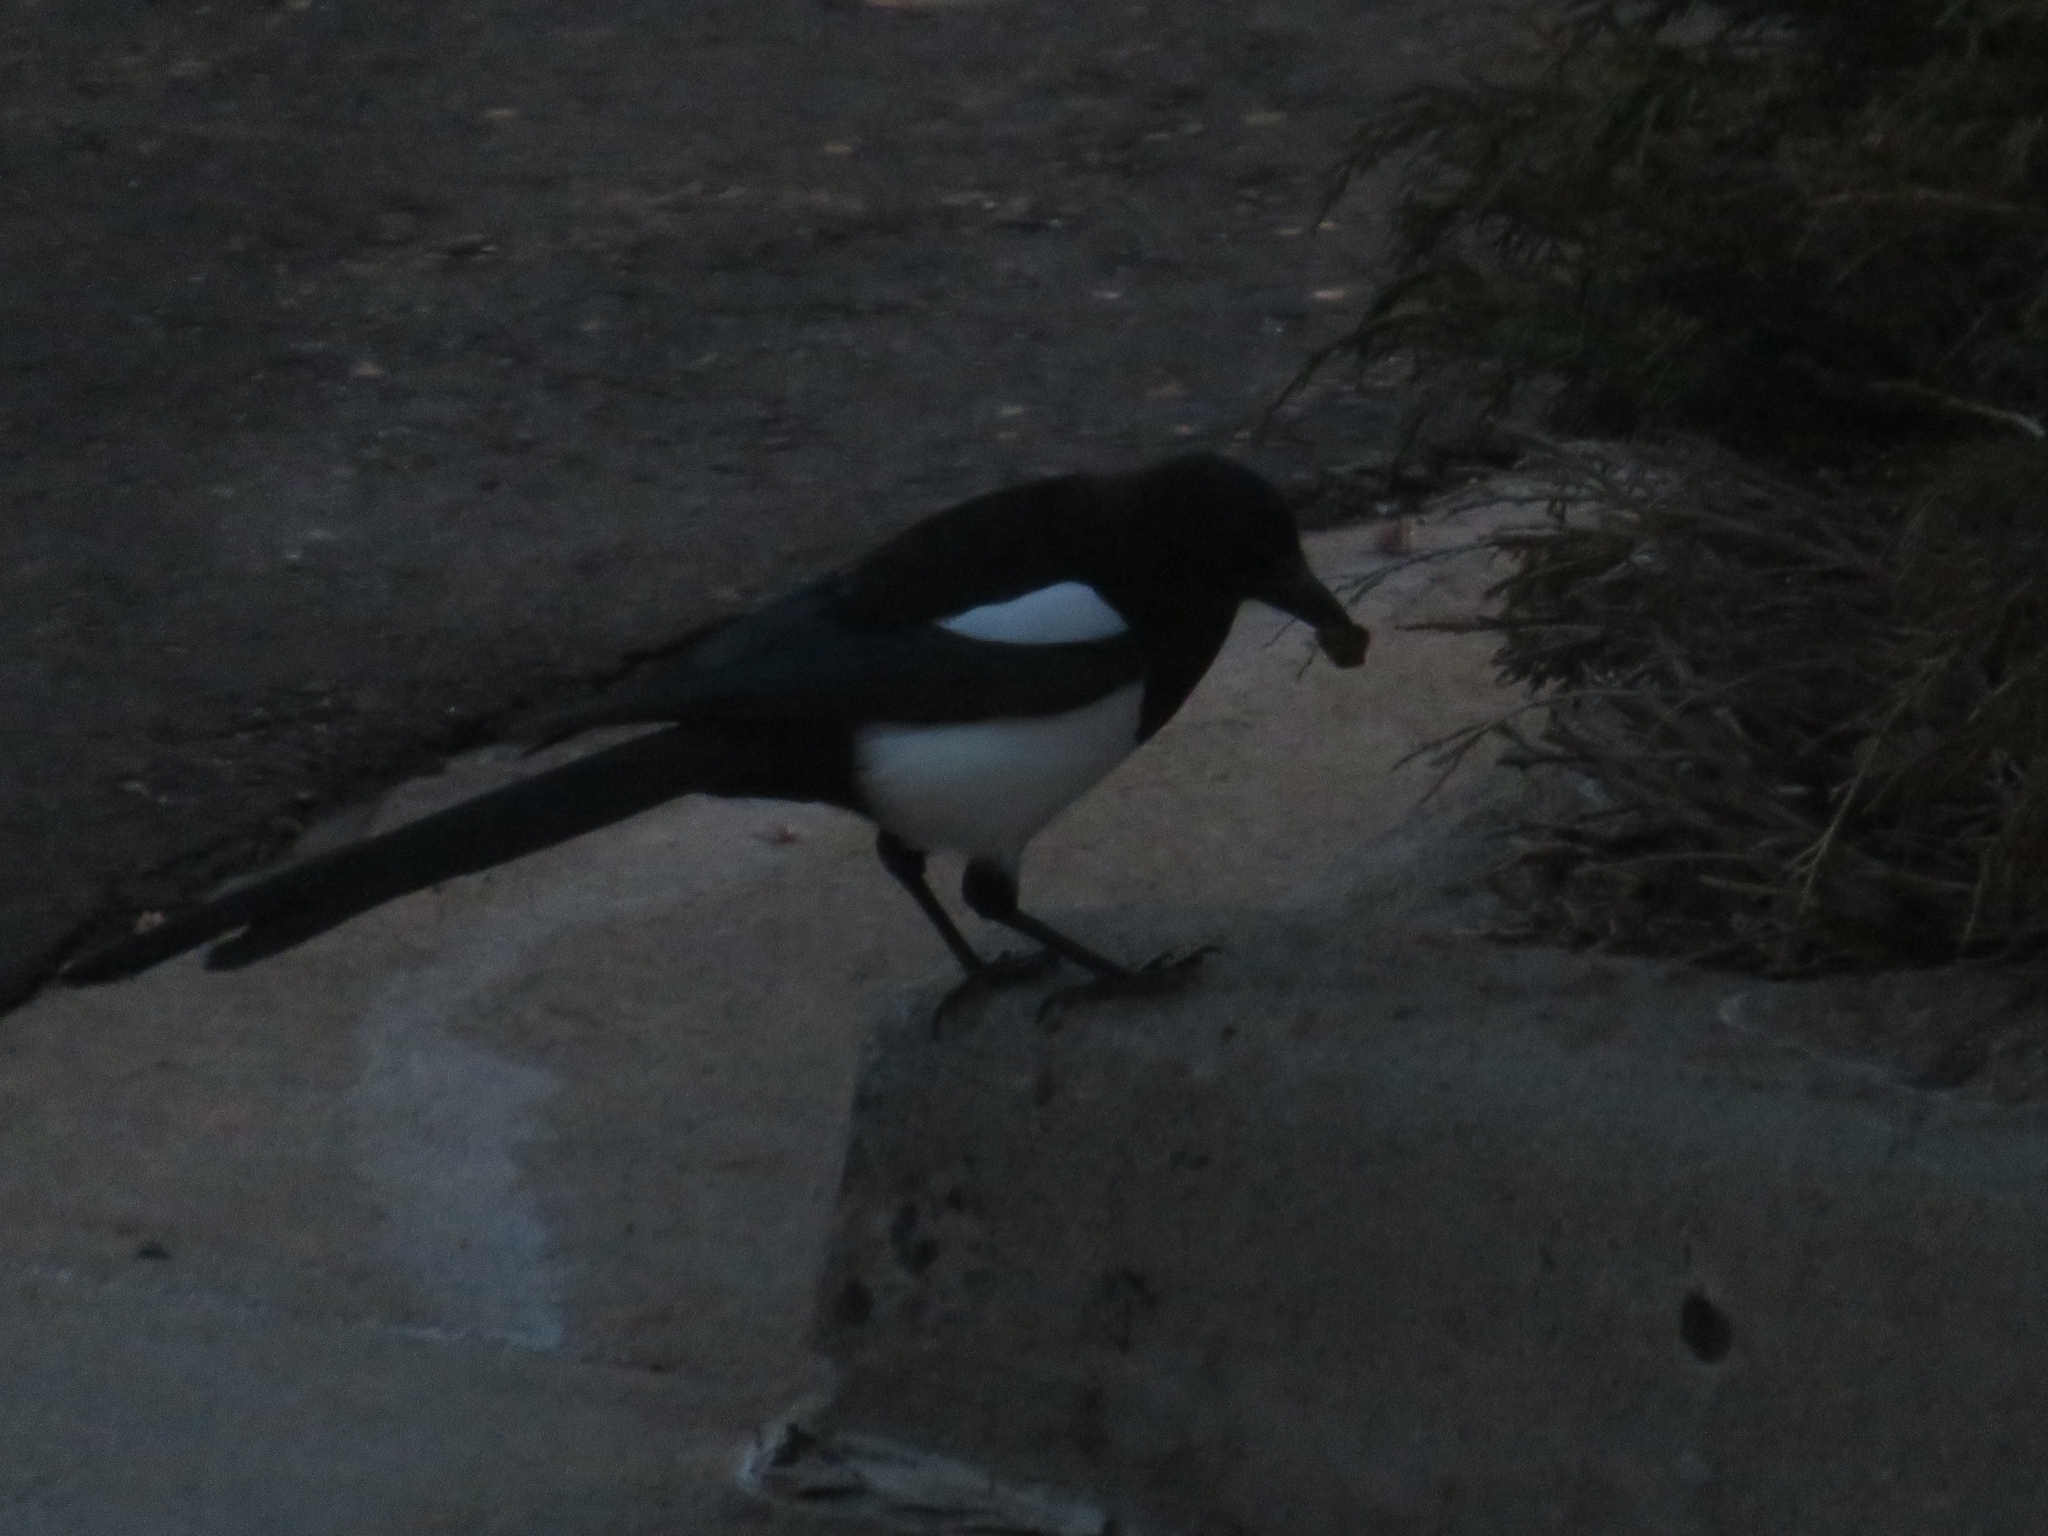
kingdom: Animalia
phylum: Chordata
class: Aves
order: Passeriformes
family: Corvidae
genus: Pica
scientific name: Pica hudsonia
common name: Black-billed magpie
